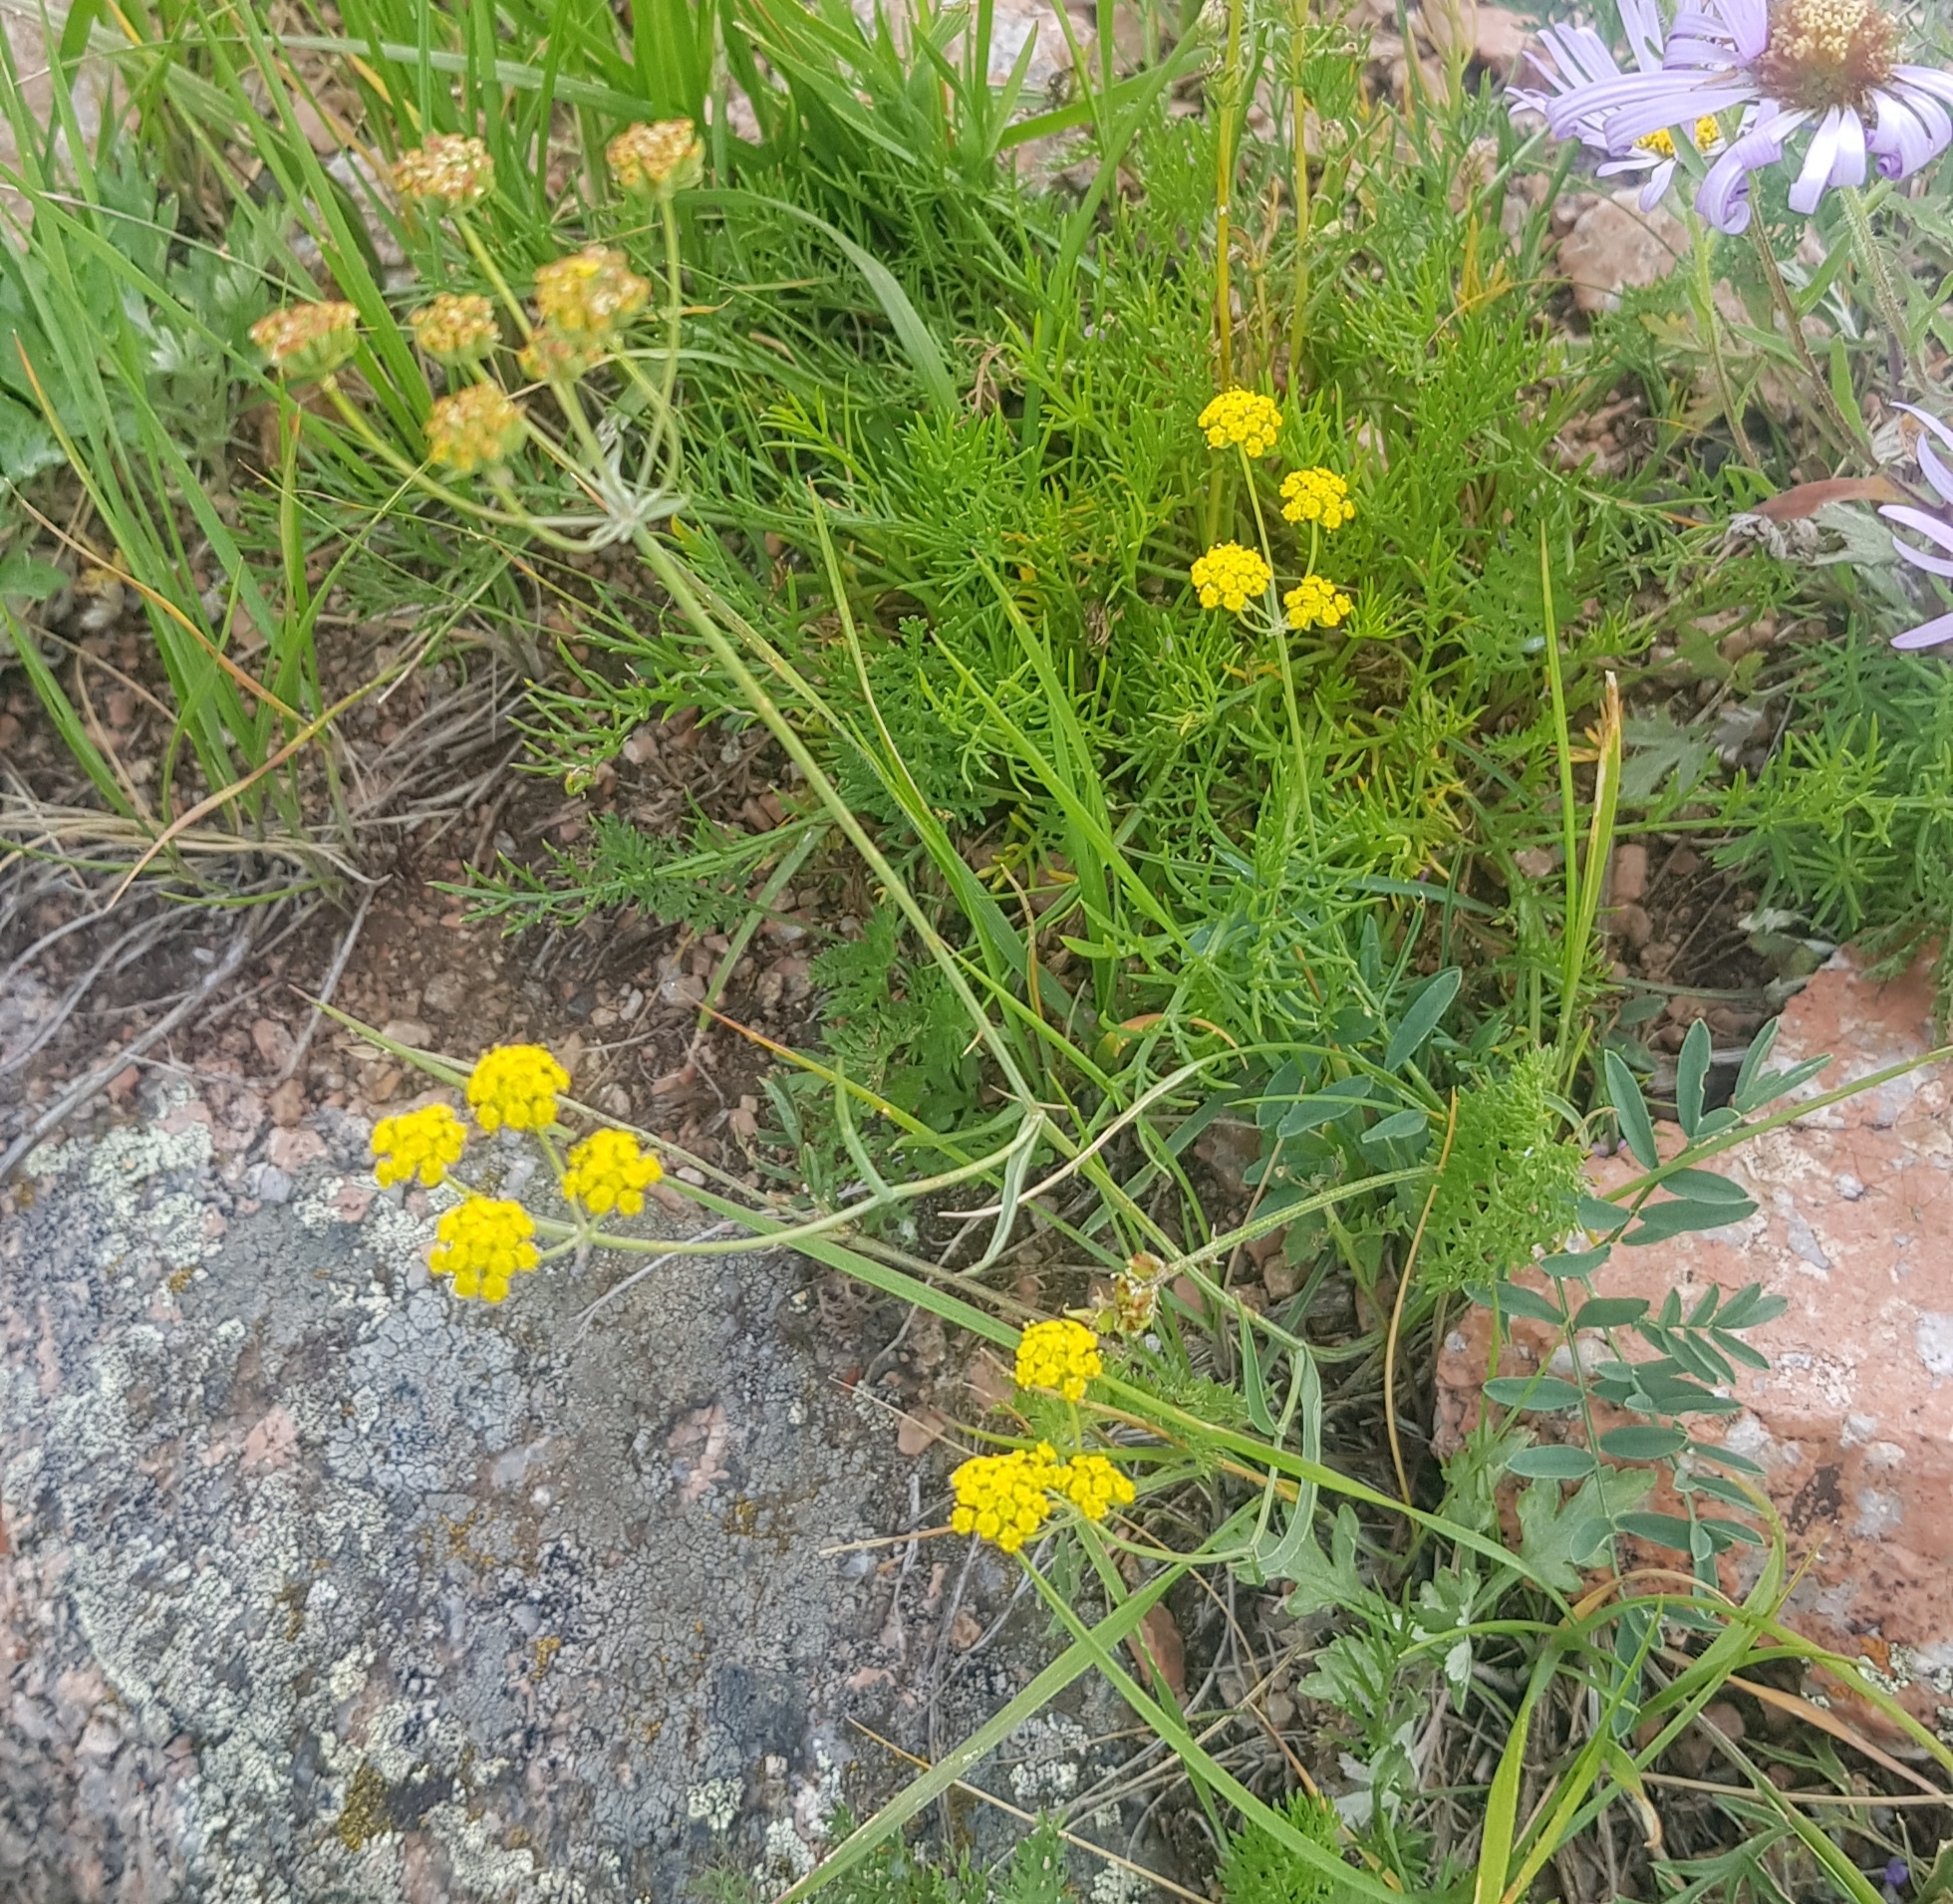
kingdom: Plantae
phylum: Tracheophyta
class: Magnoliopsida
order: Apiales
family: Apiaceae
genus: Bupleurum
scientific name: Bupleurum scorzonerifolium
